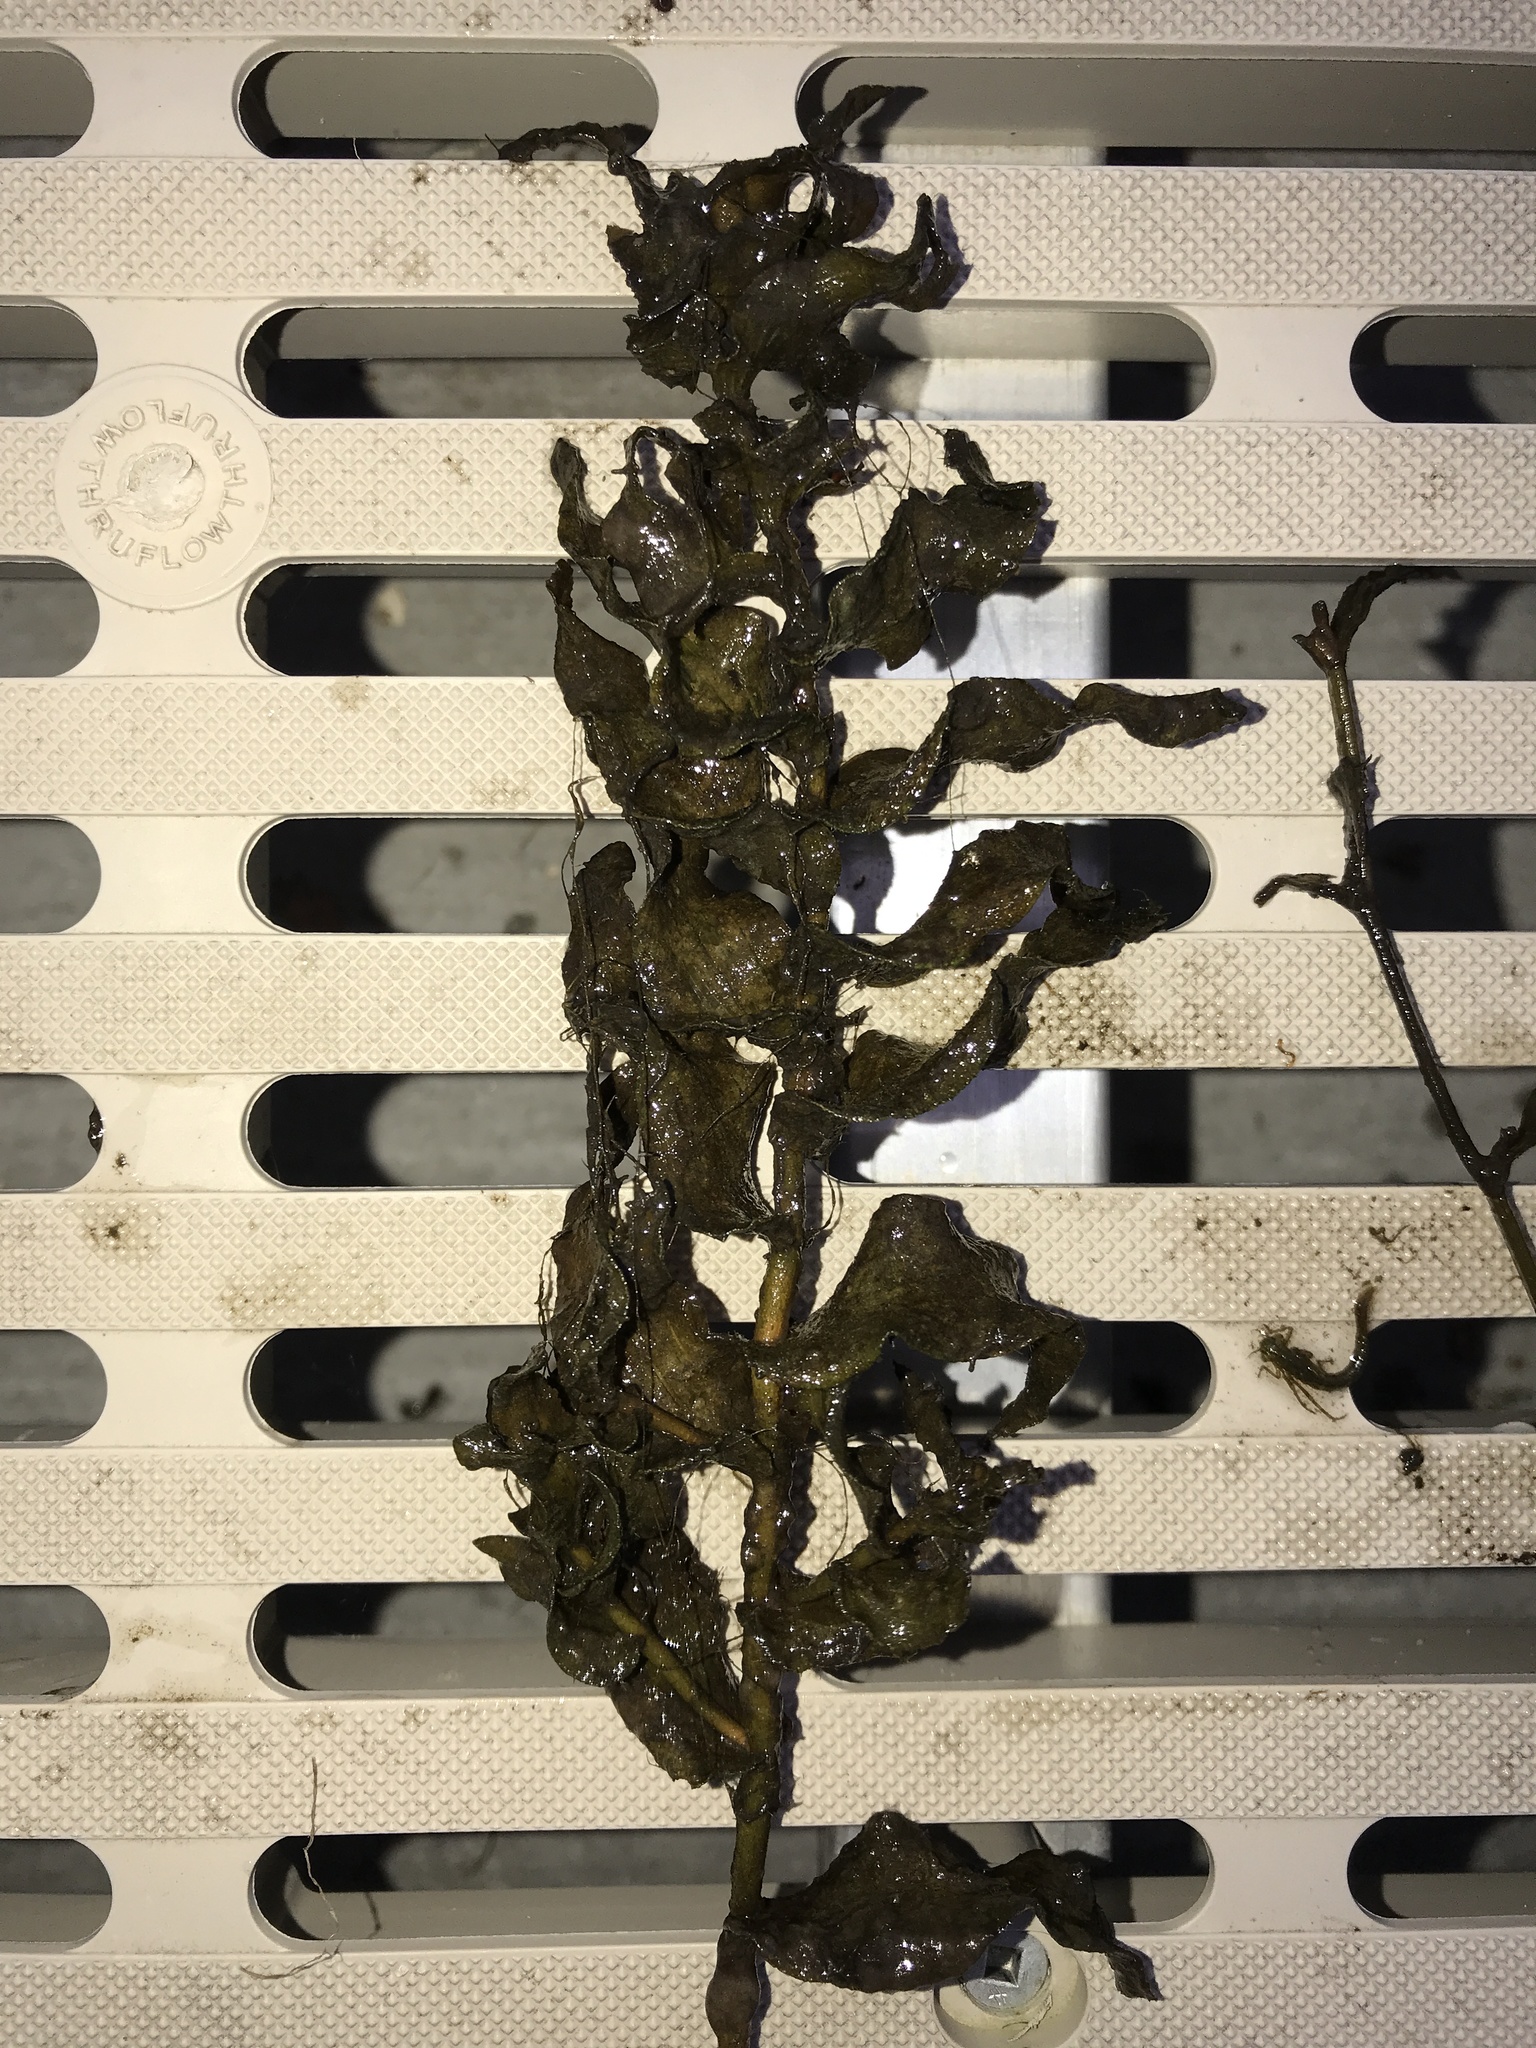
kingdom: Plantae
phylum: Tracheophyta
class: Liliopsida
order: Alismatales
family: Potamogetonaceae
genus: Potamogeton
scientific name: Potamogeton richardsonii
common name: Richardson's pondweed
